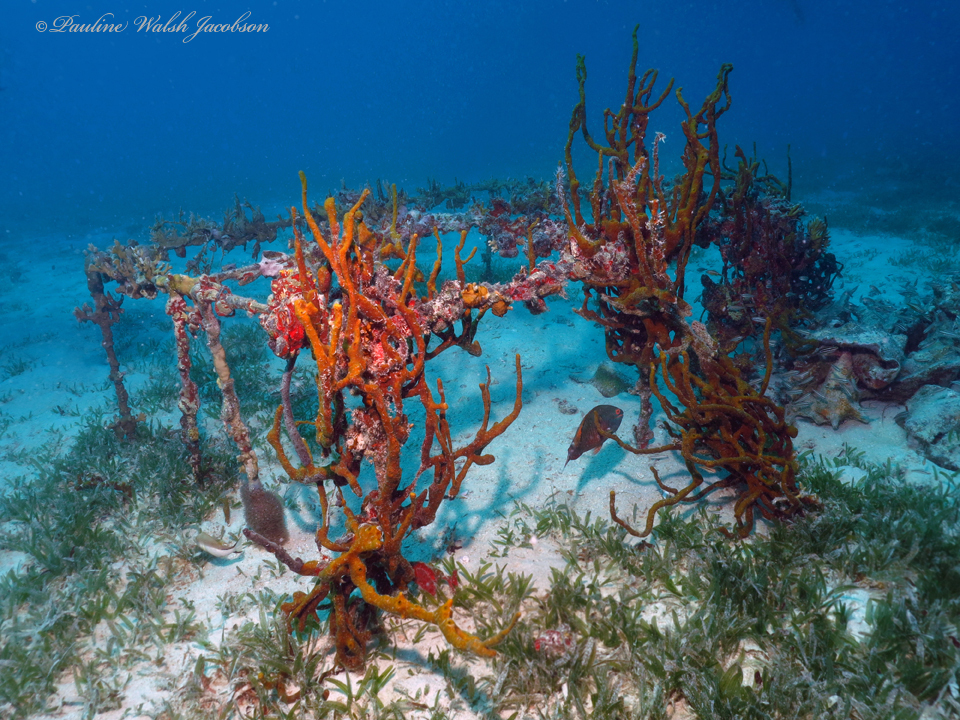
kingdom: Animalia
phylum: Porifera
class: Demospongiae
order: Haplosclerida
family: Niphatidae
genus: Amphimedon
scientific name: Amphimedon compressa
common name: Red sponge
